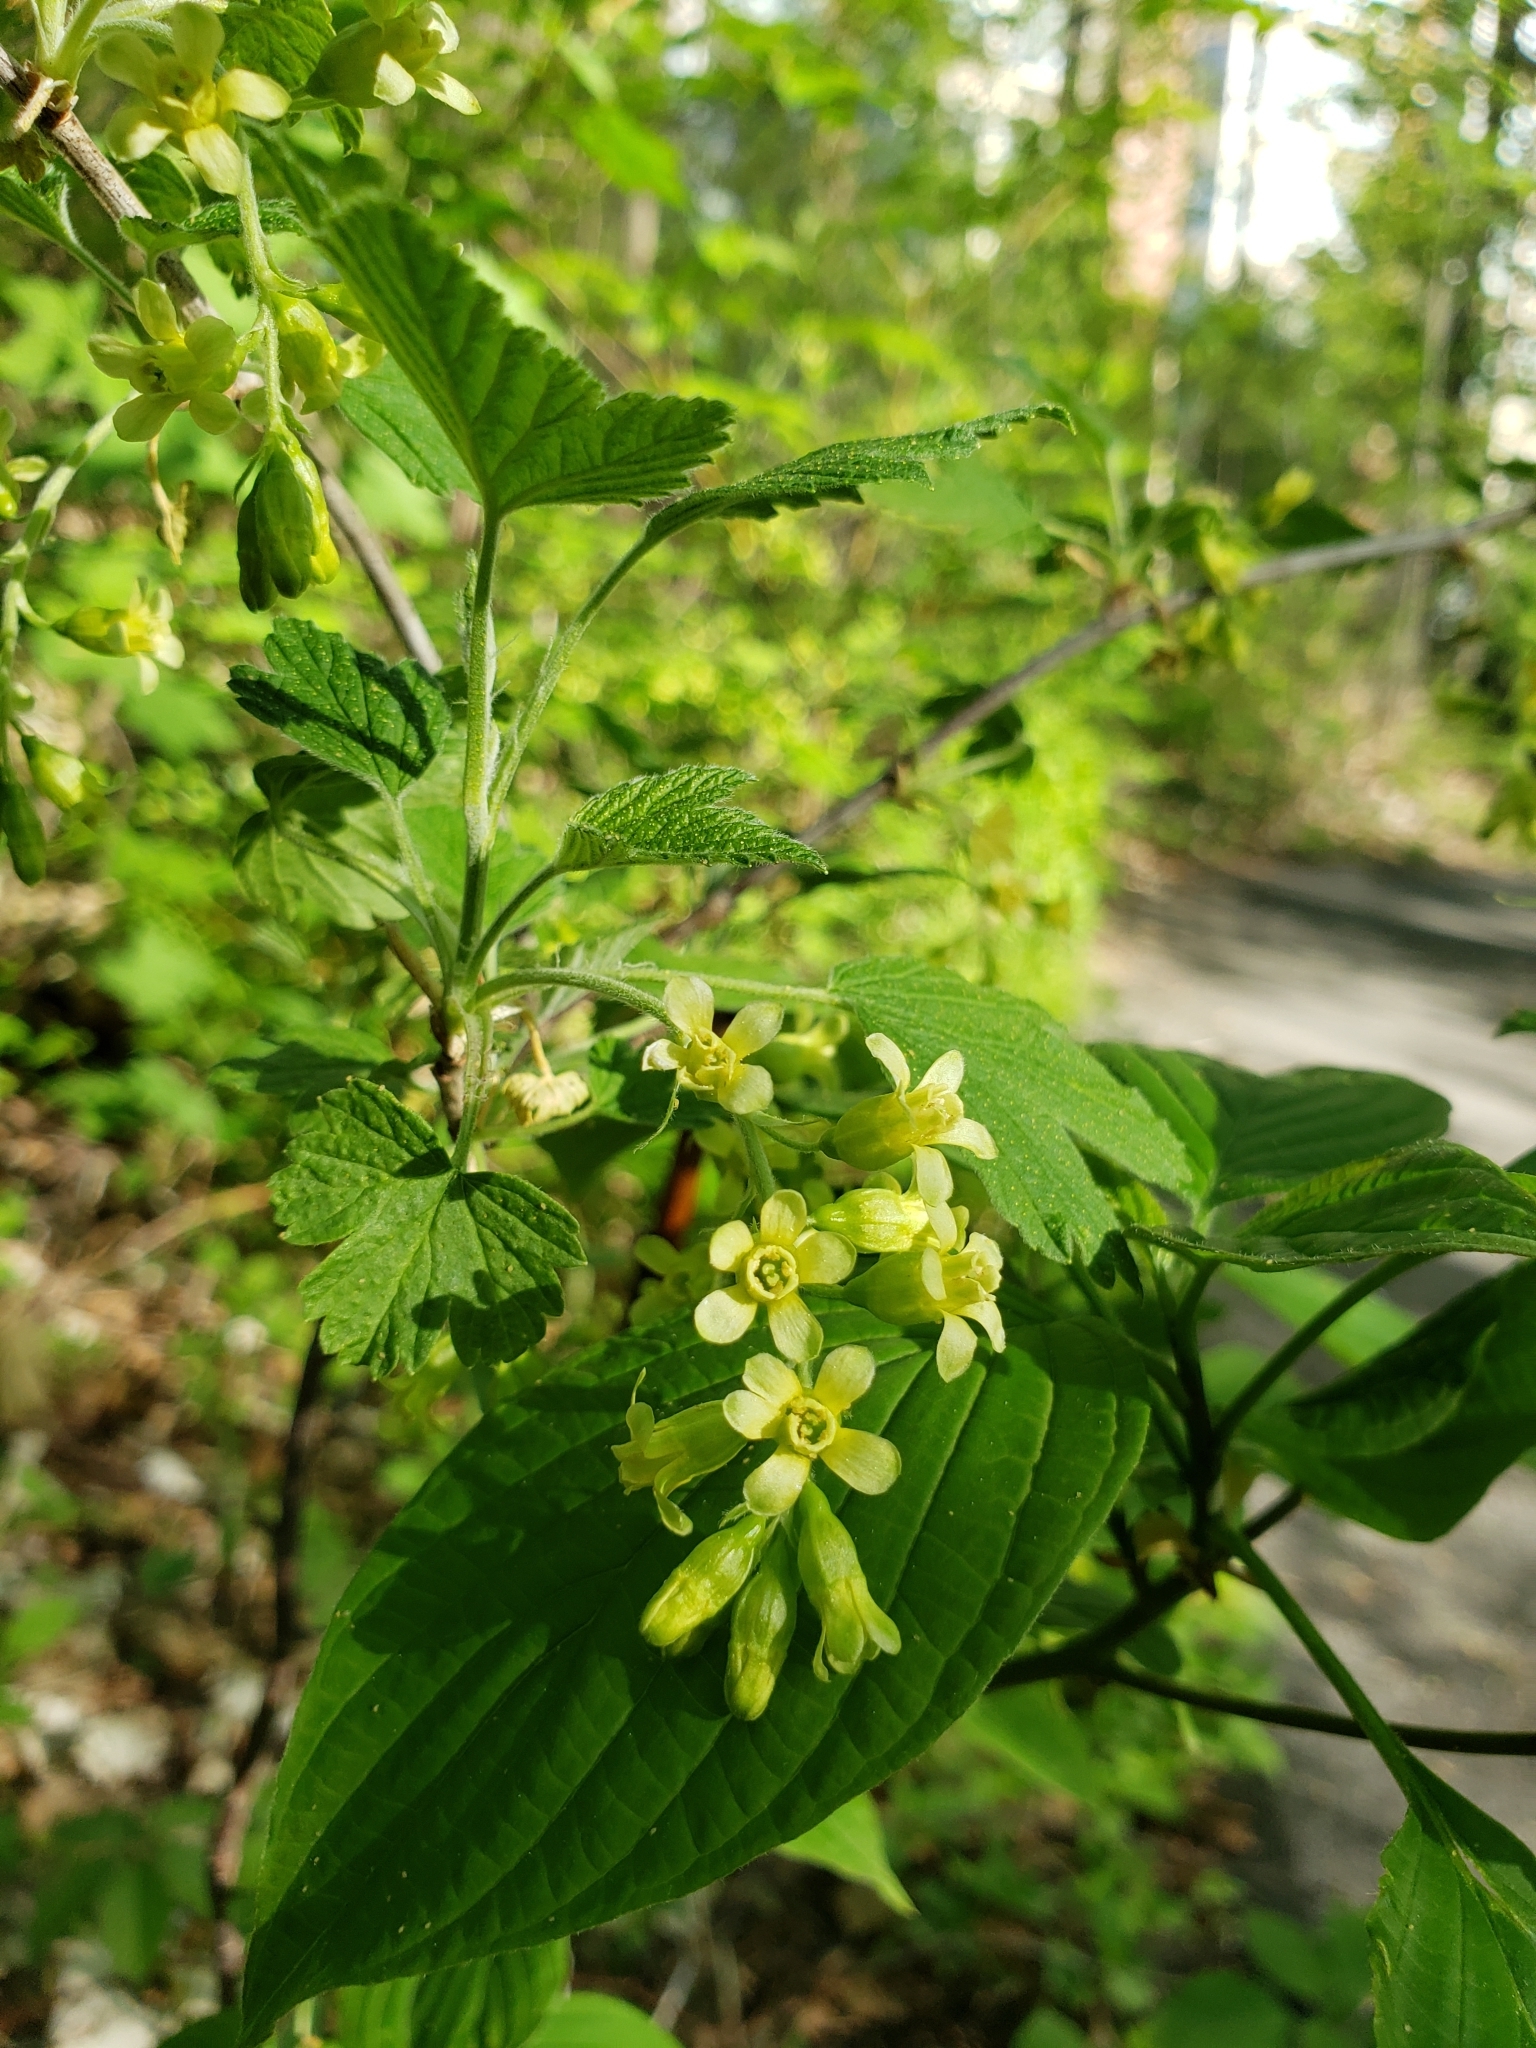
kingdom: Plantae
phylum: Tracheophyta
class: Magnoliopsida
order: Saxifragales
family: Grossulariaceae
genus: Ribes
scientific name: Ribes americanum
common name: American black currant
